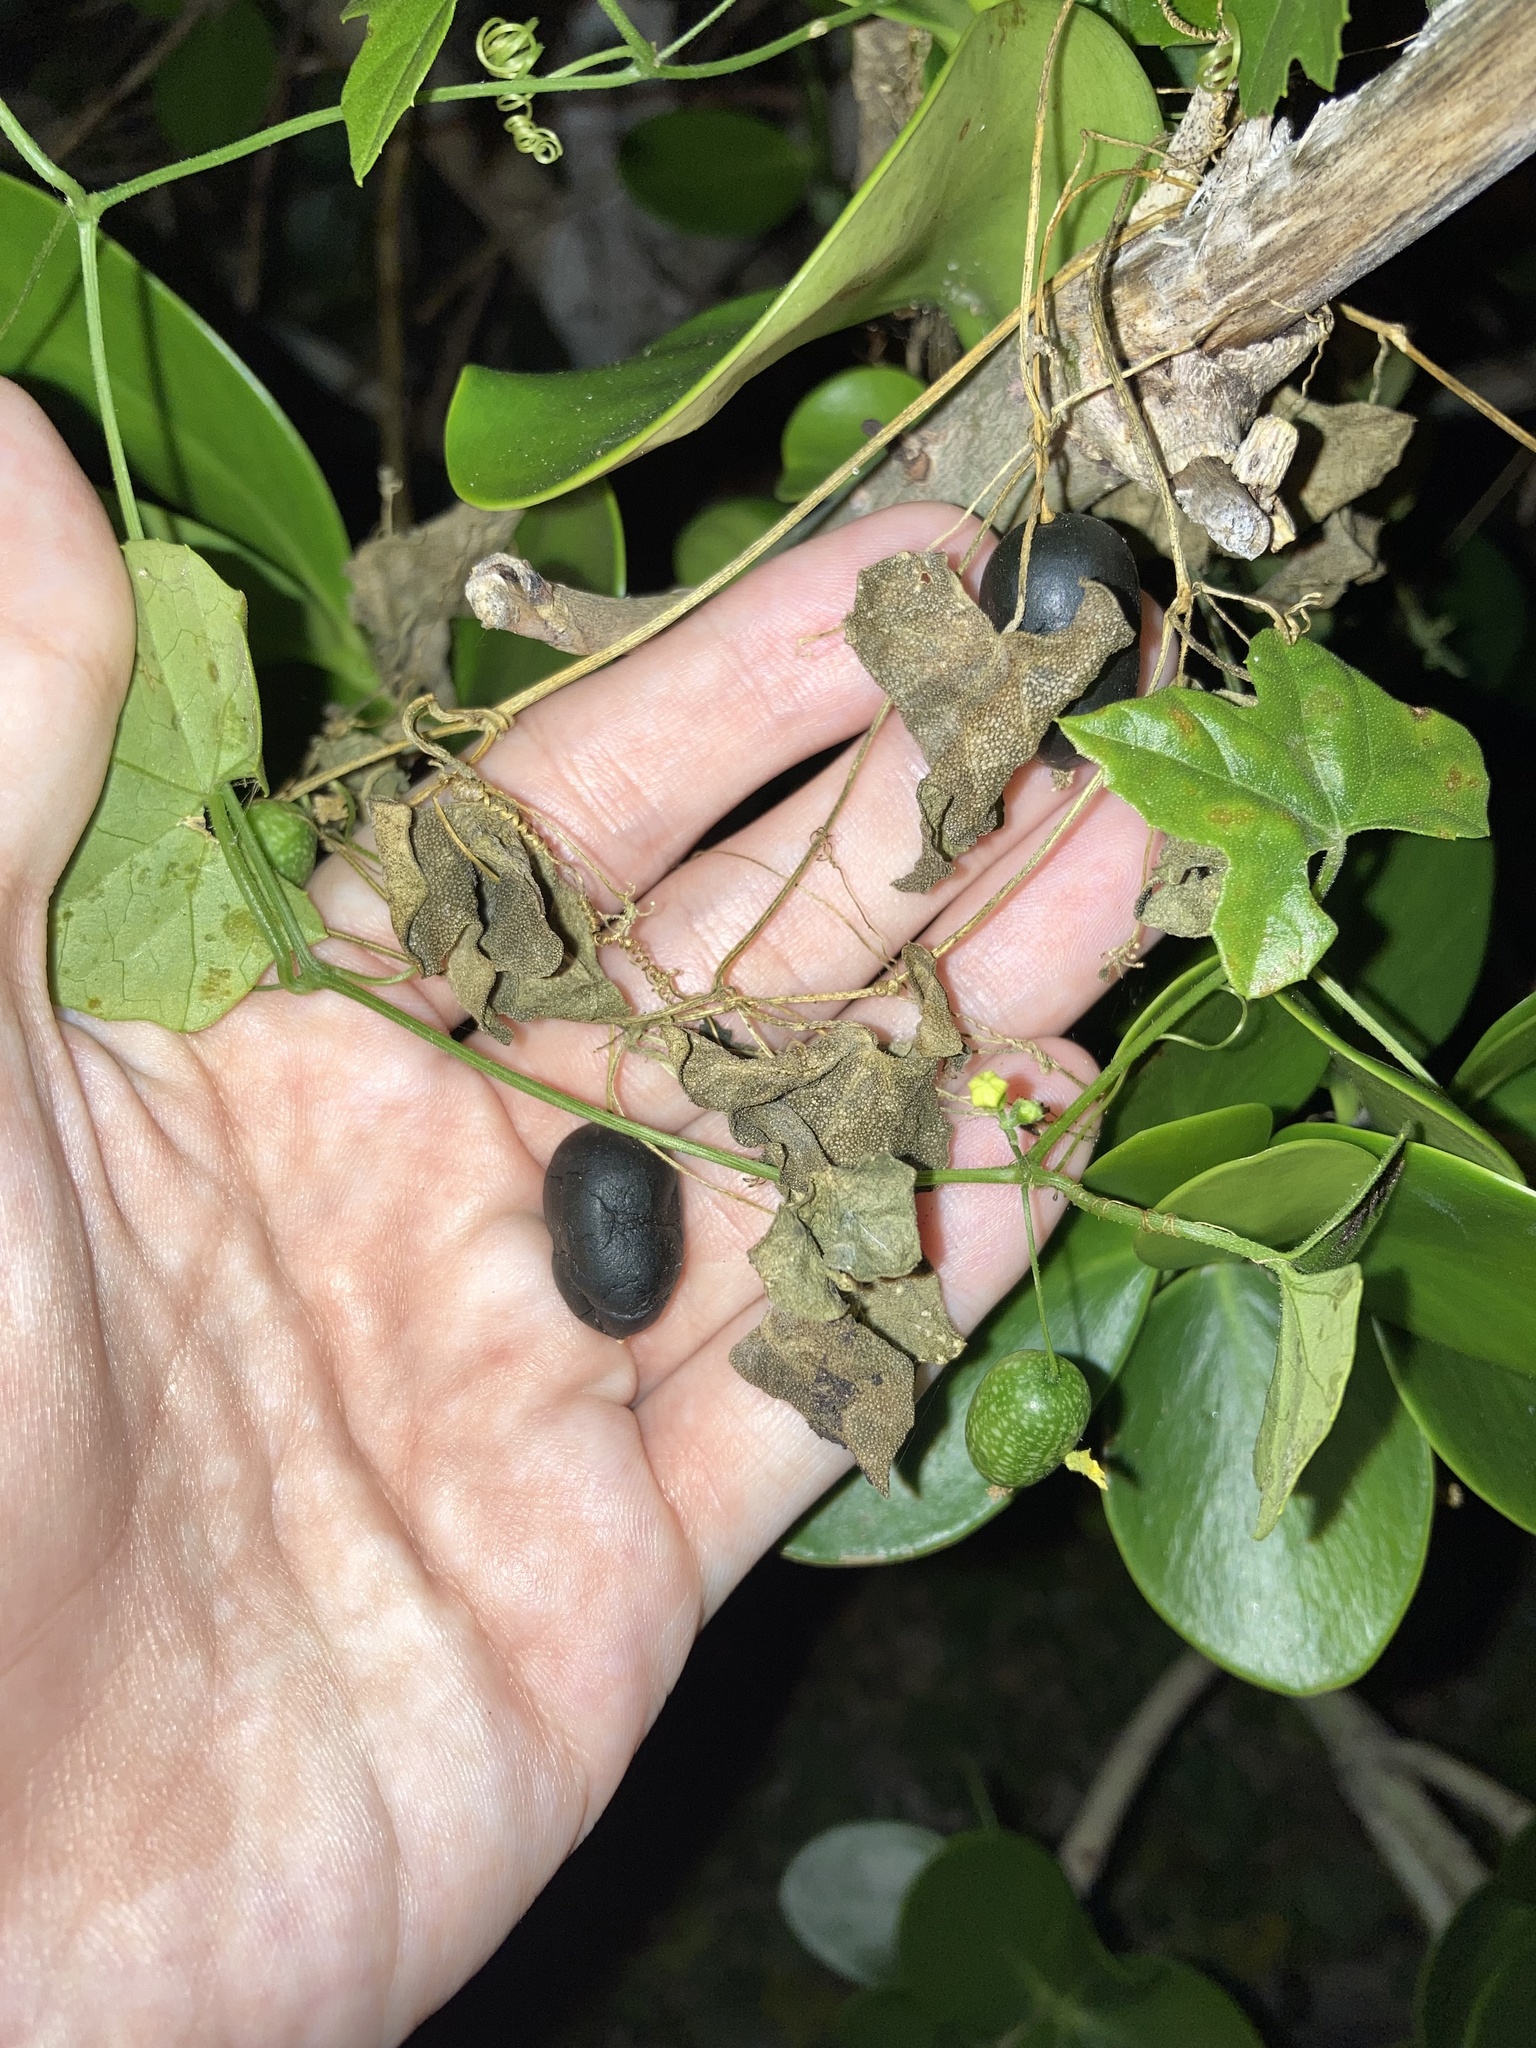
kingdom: Plantae
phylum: Tracheophyta
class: Magnoliopsida
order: Cucurbitales
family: Cucurbitaceae
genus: Melothria
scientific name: Melothria pendula
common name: Creeping-cucumber
